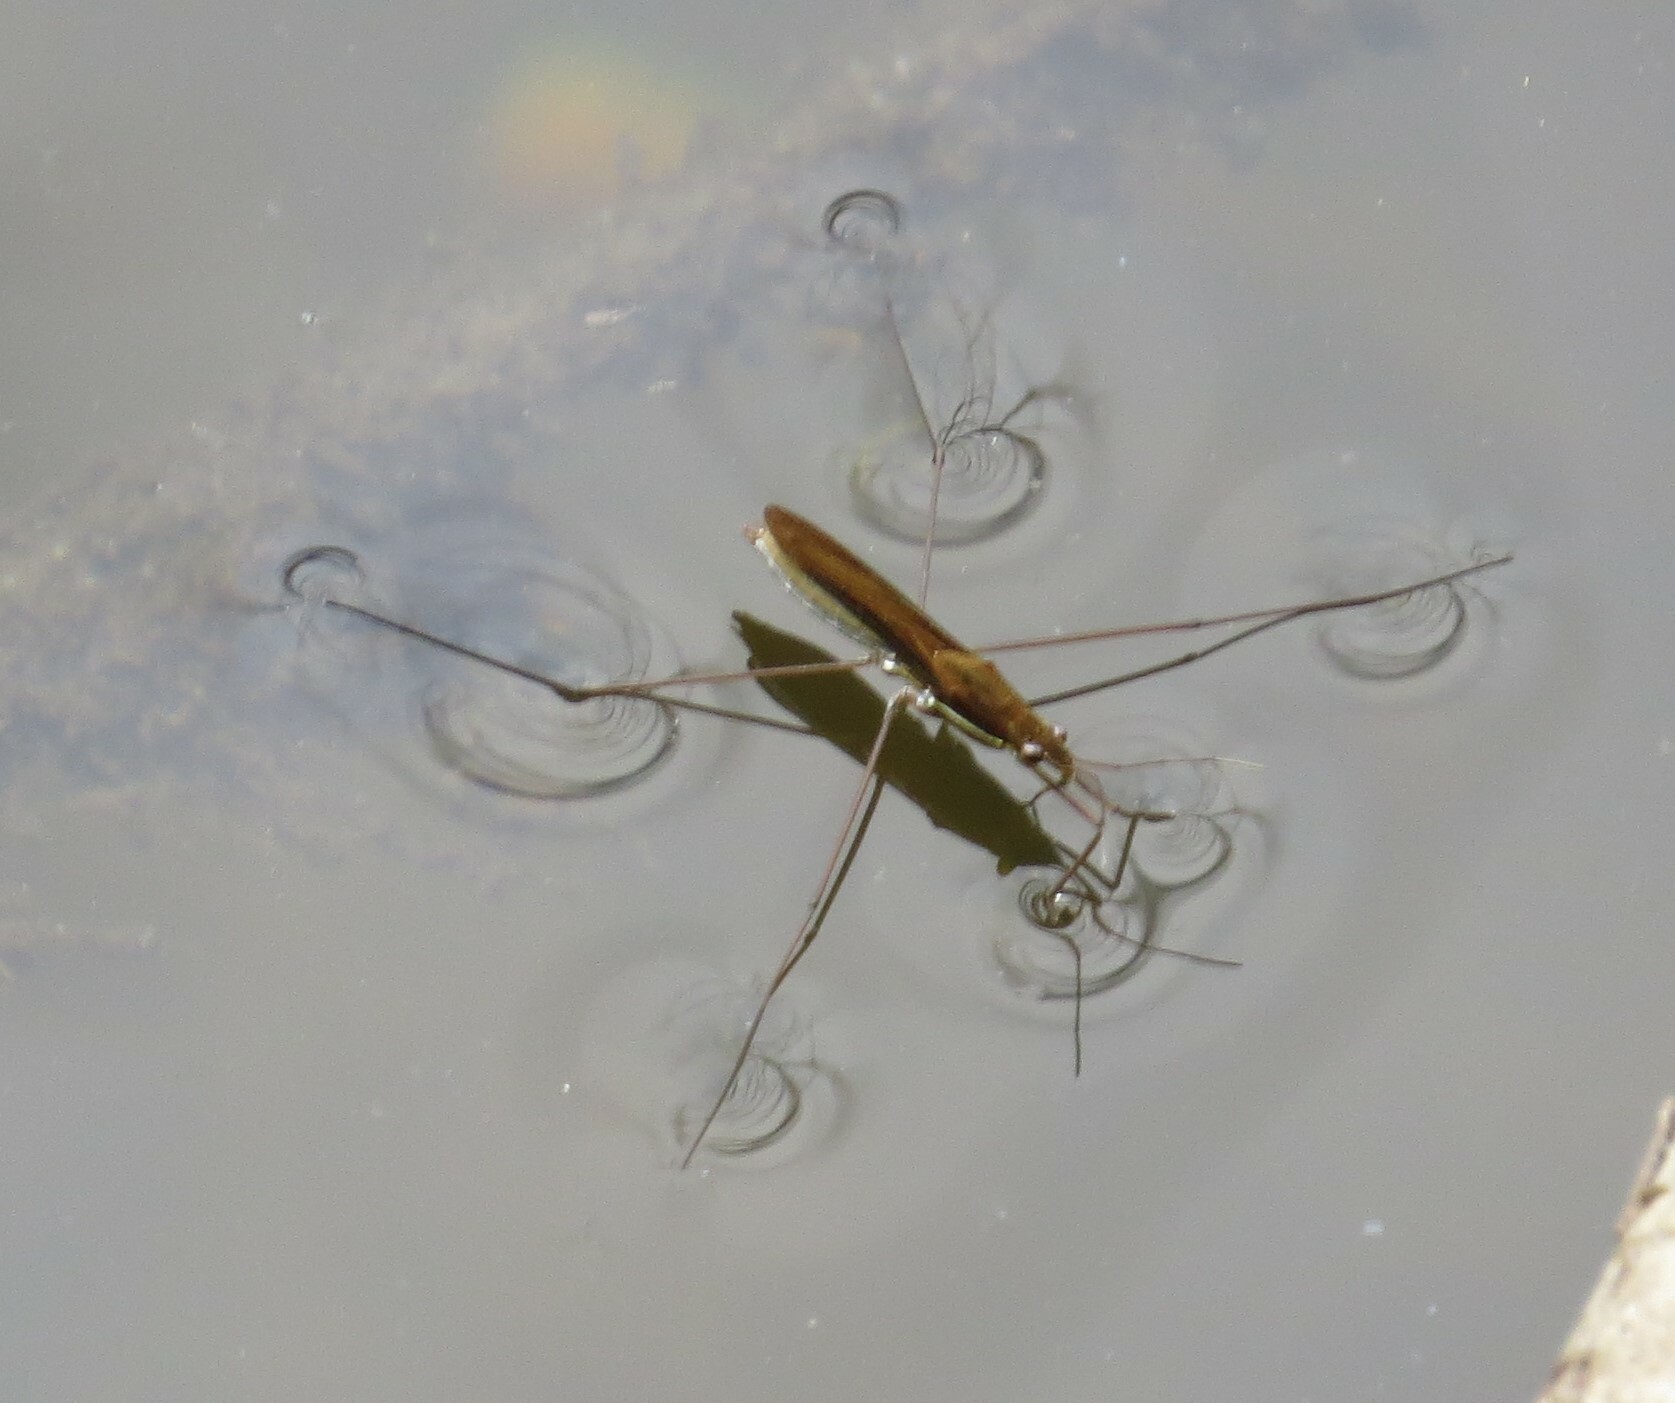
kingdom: Animalia
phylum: Arthropoda
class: Insecta
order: Hemiptera
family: Gerridae
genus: Limnoporus
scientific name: Limnoporus dissortis
